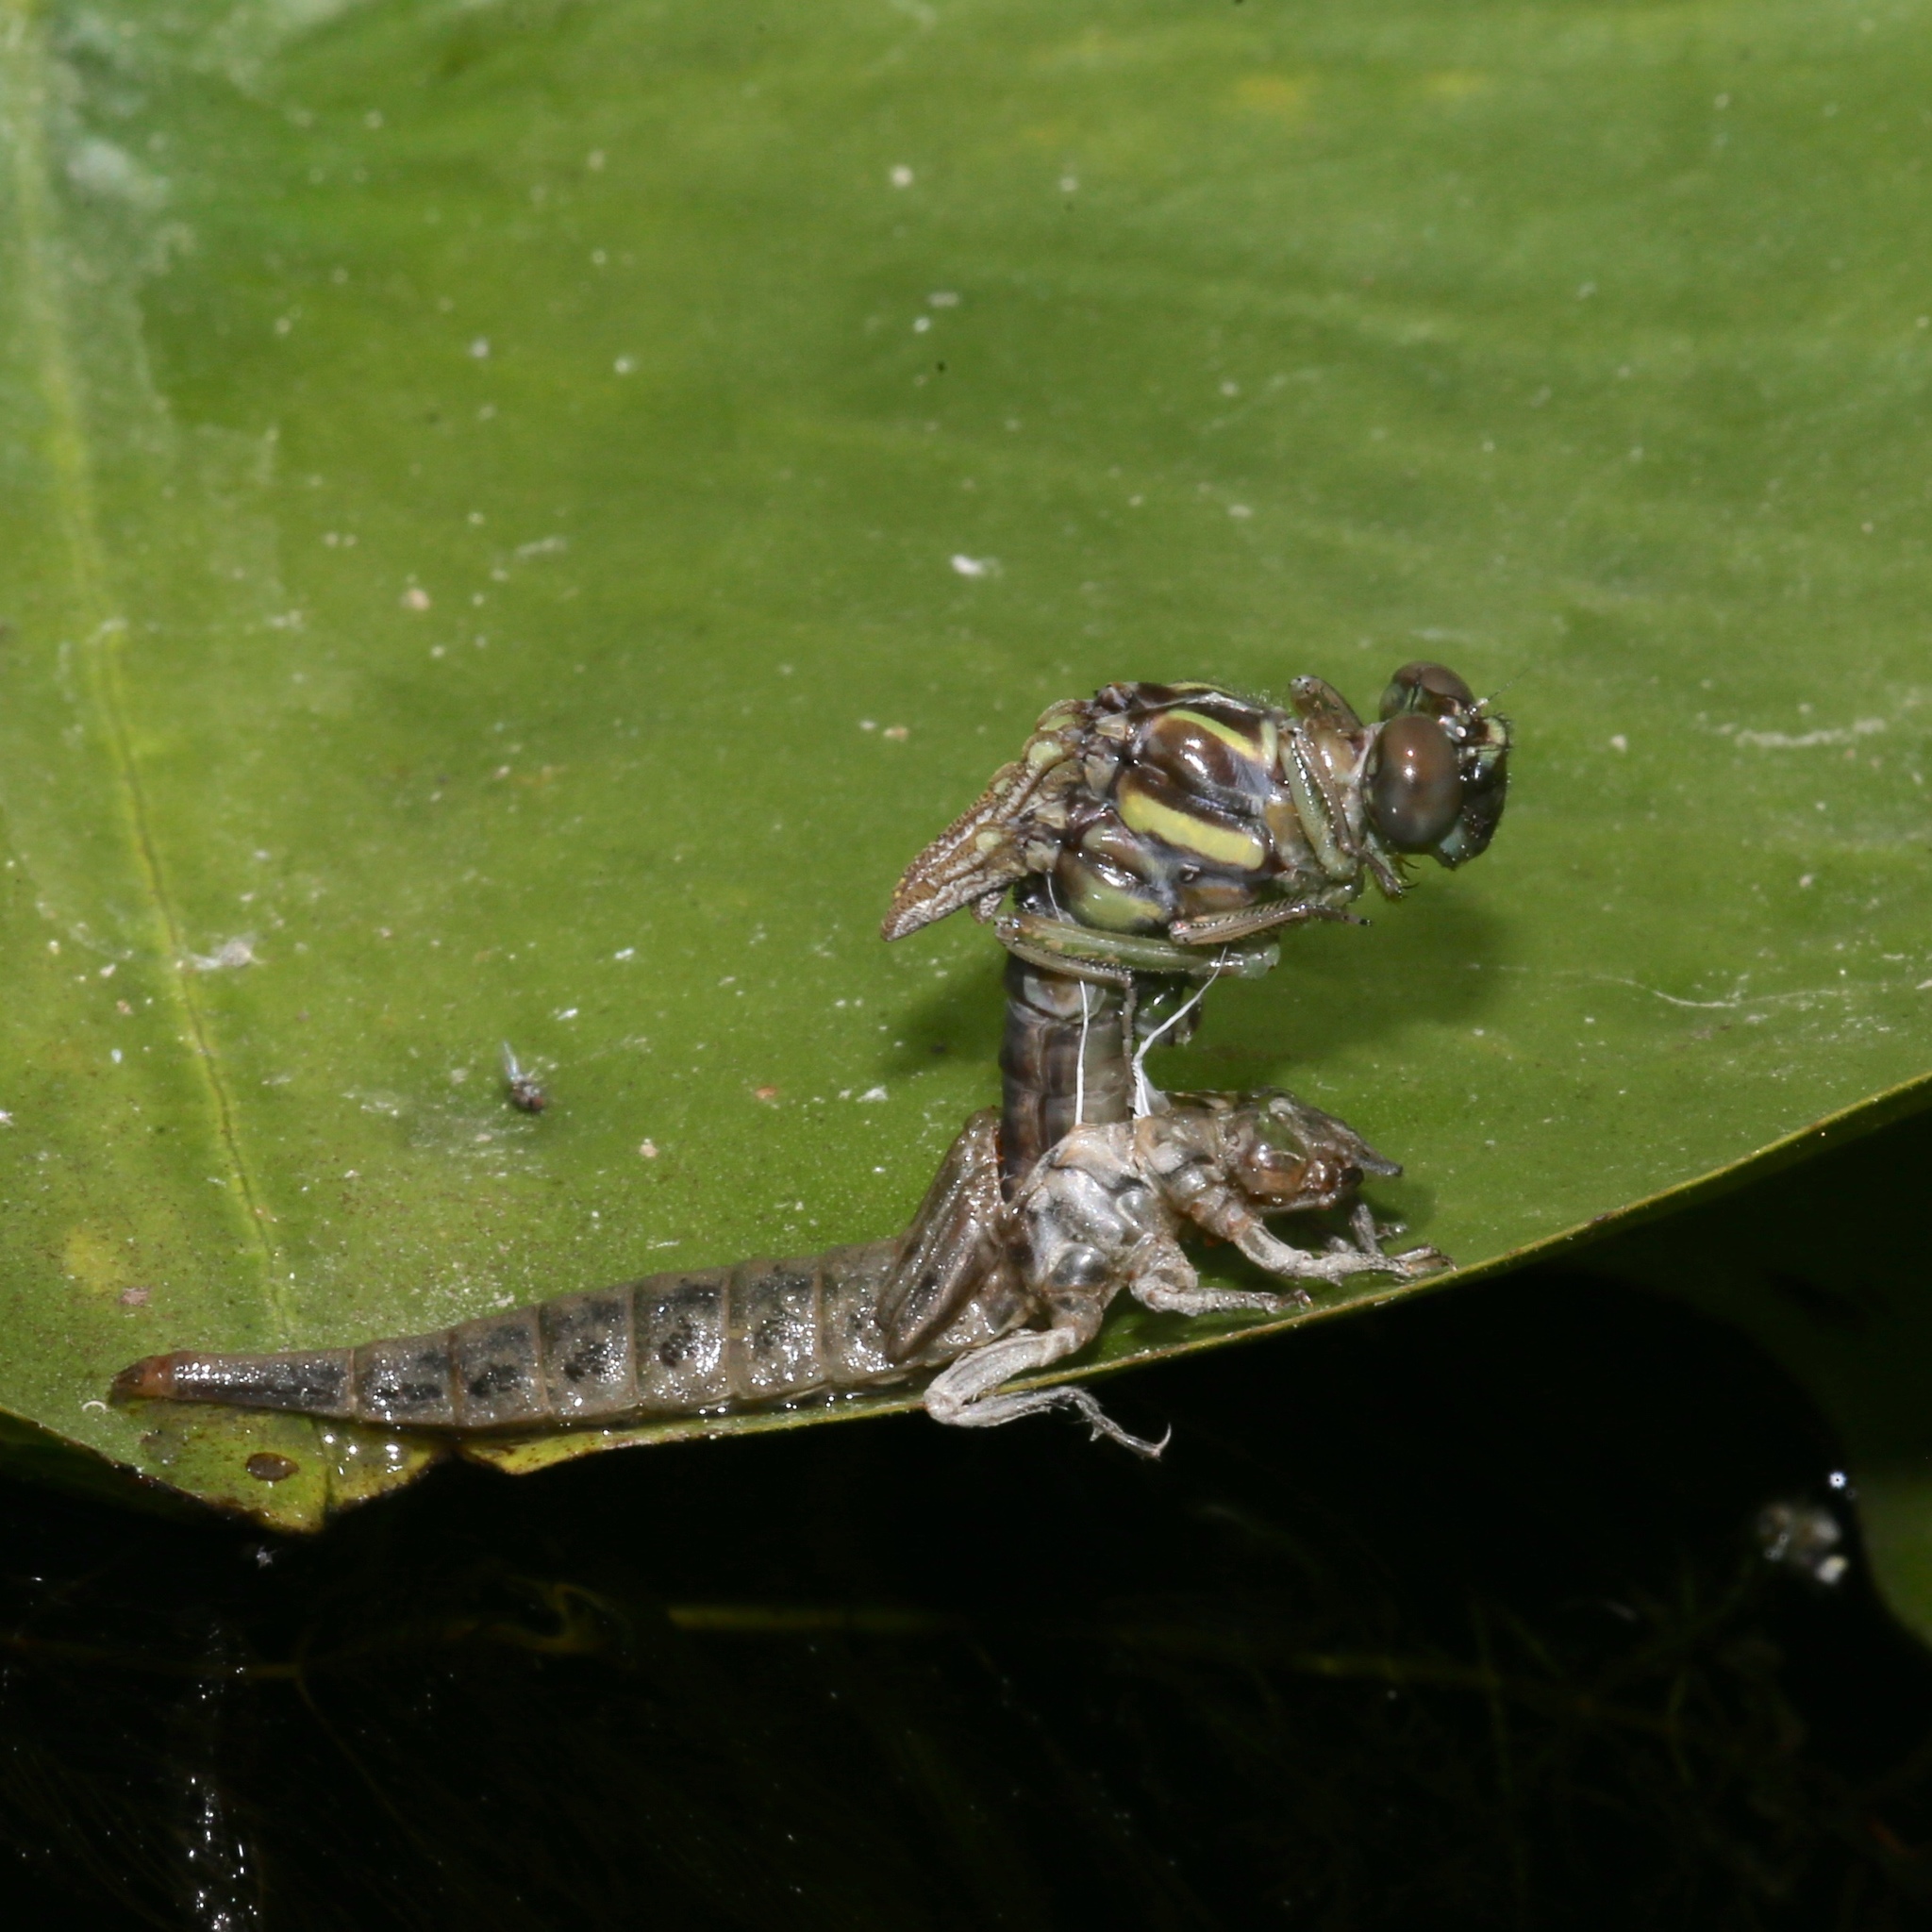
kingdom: Animalia
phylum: Arthropoda
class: Insecta
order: Odonata
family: Gomphidae
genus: Stylurus
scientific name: Stylurus spiniceps
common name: Arrow clubtail
